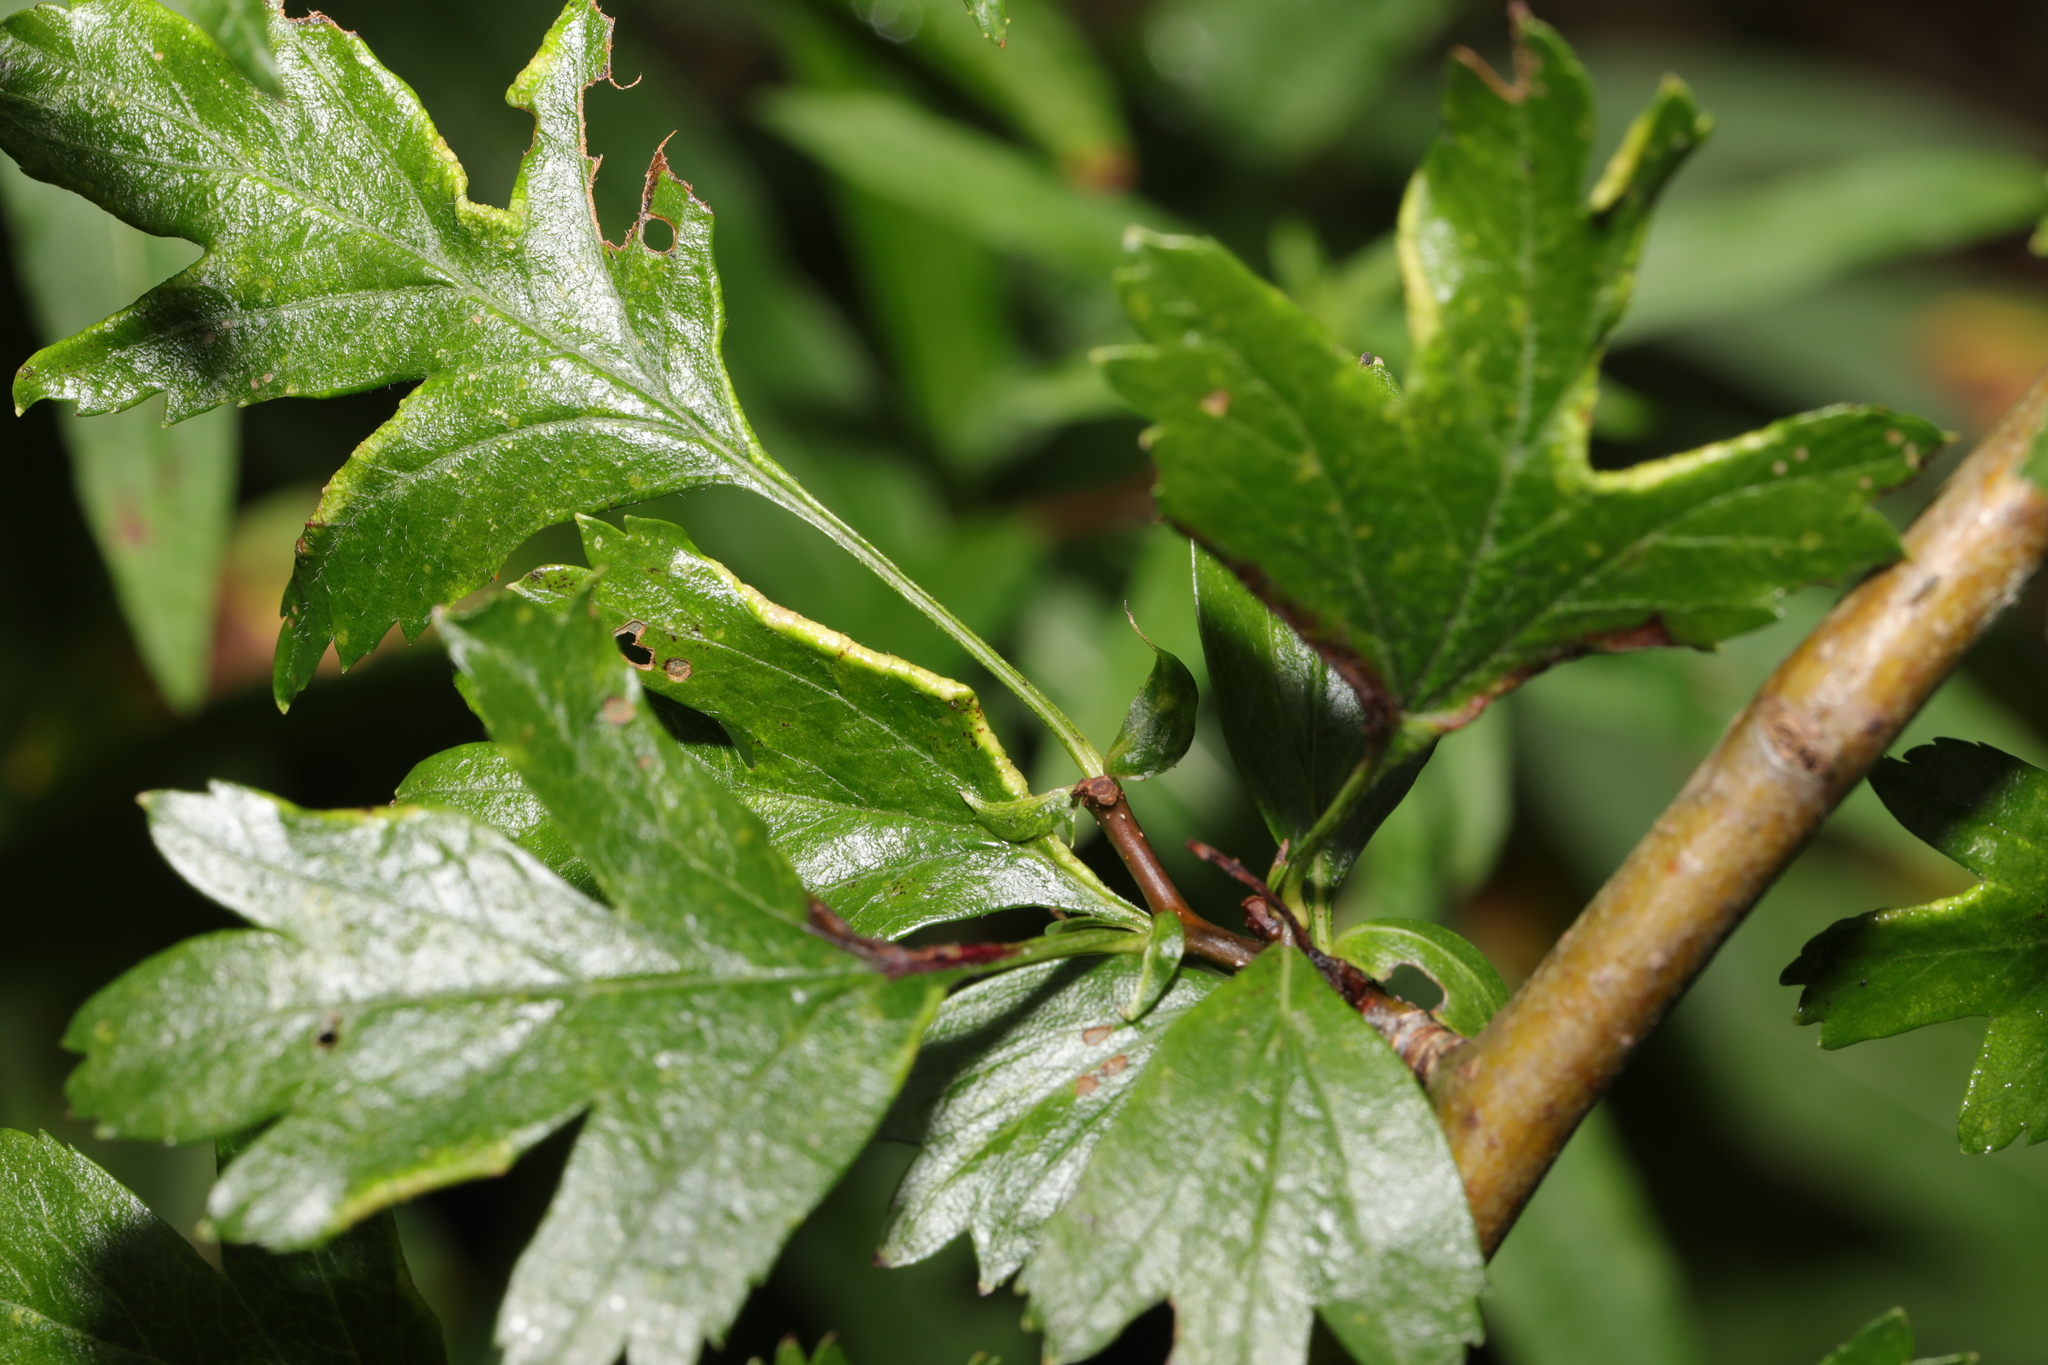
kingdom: Animalia
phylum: Arthropoda
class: Arachnida
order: Trombidiformes
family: Eriophyidae
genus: Phyllocoptes
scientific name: Phyllocoptes goniothorax
